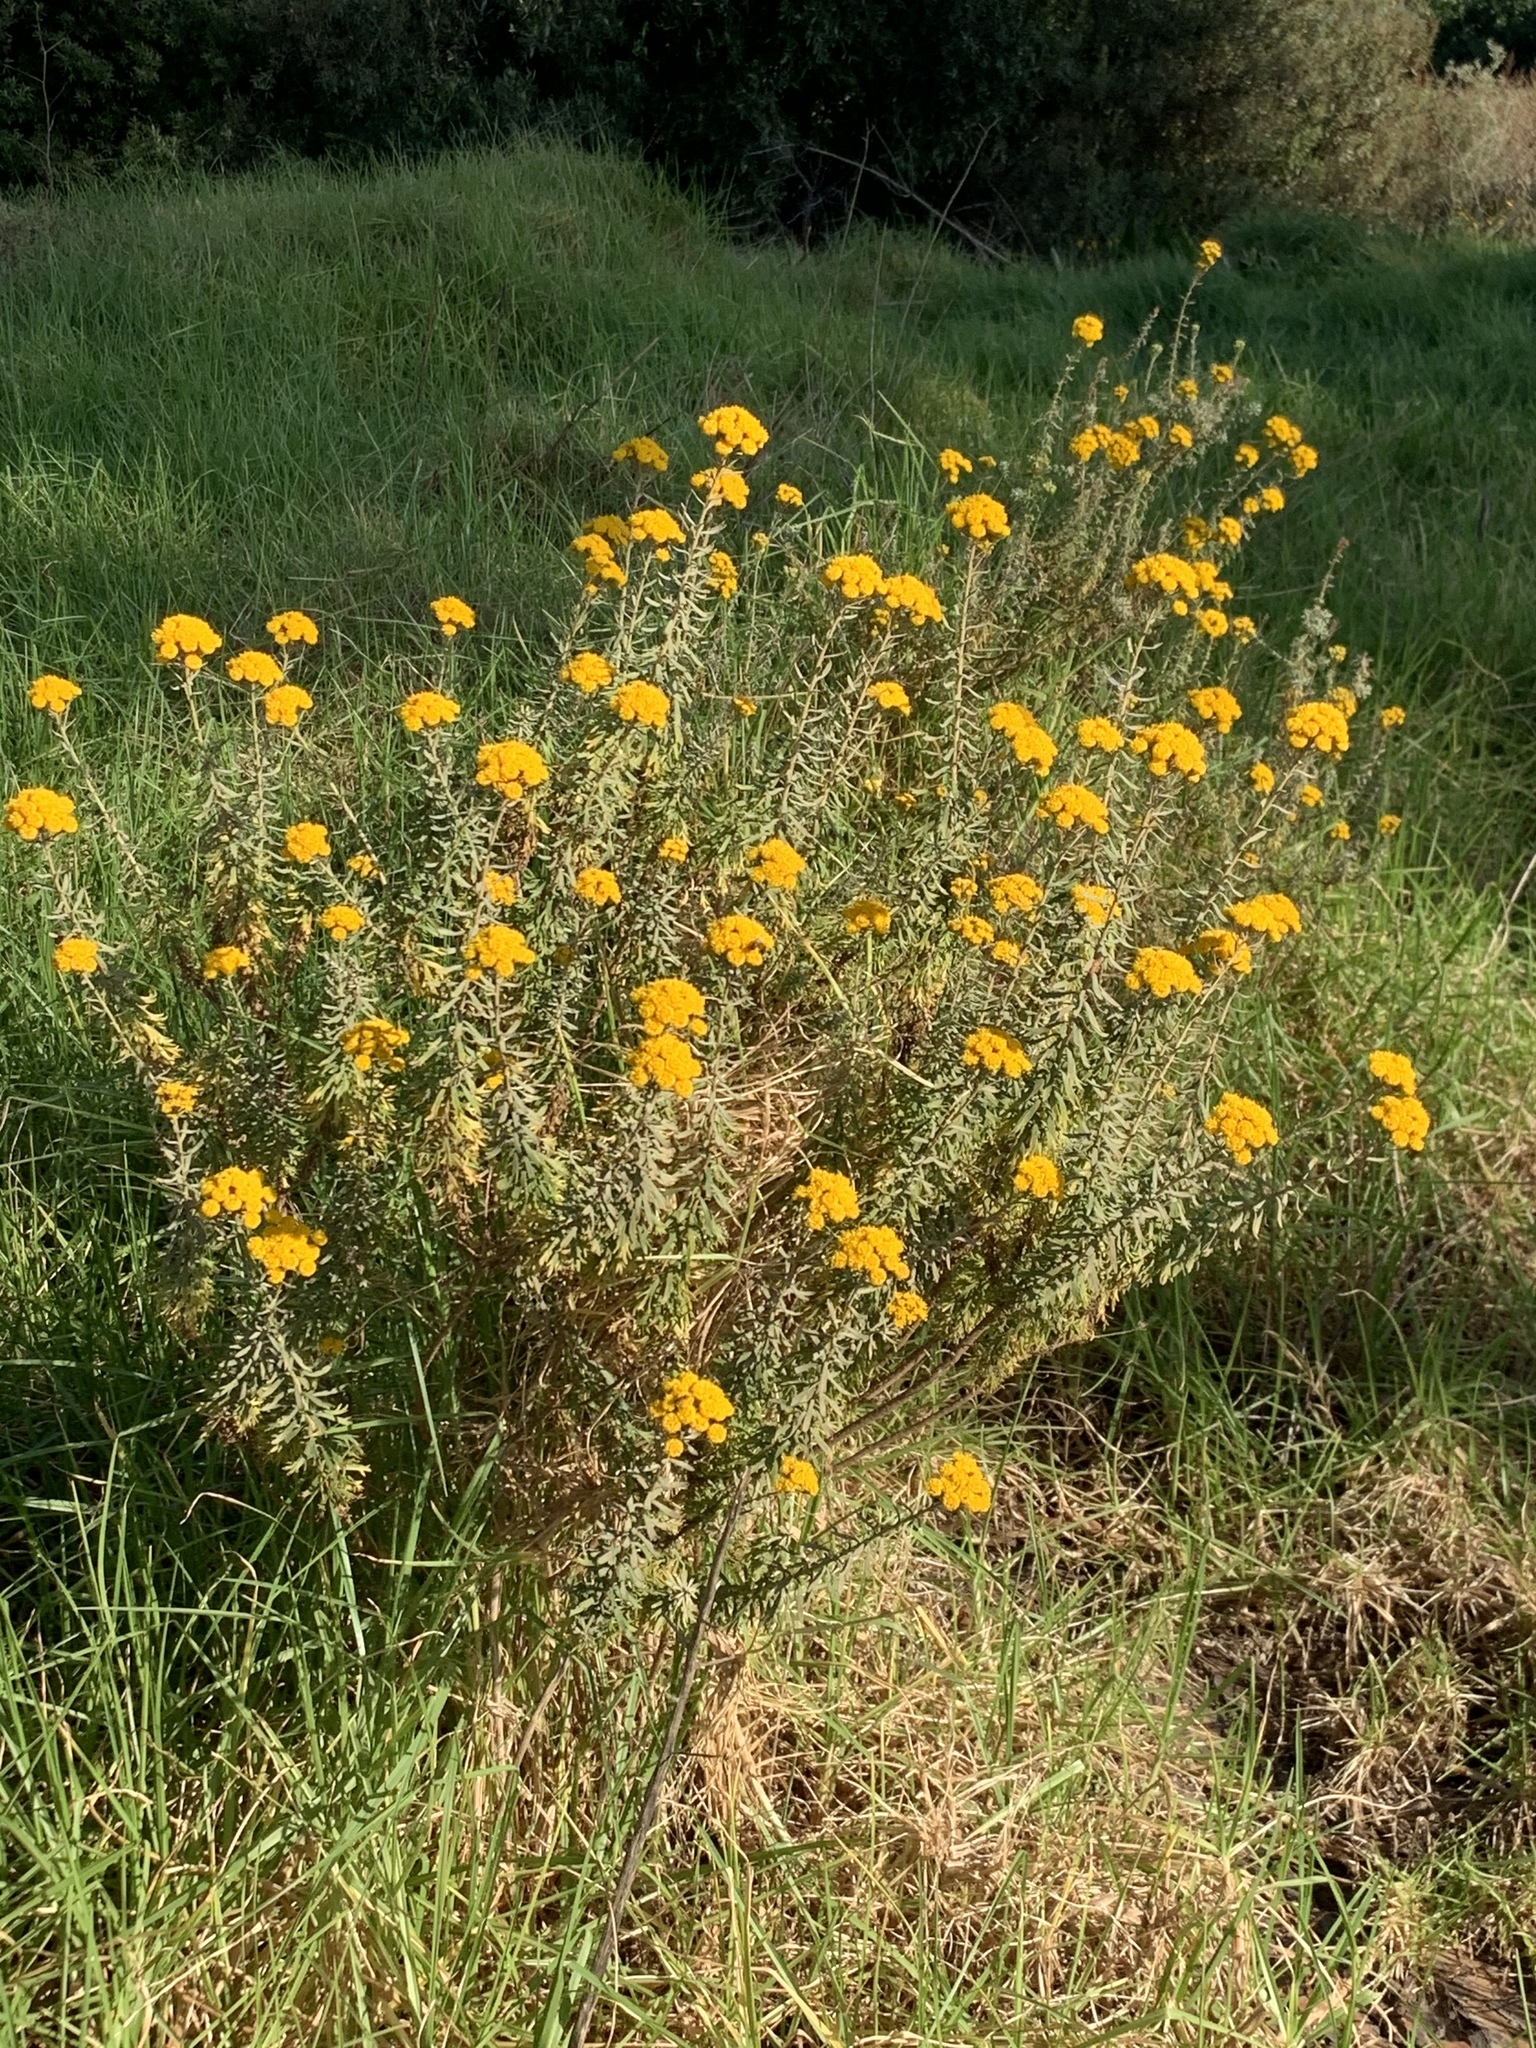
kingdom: Plantae
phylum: Tracheophyta
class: Magnoliopsida
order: Asterales
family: Asteraceae
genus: Athanasia
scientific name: Athanasia trifurcata
